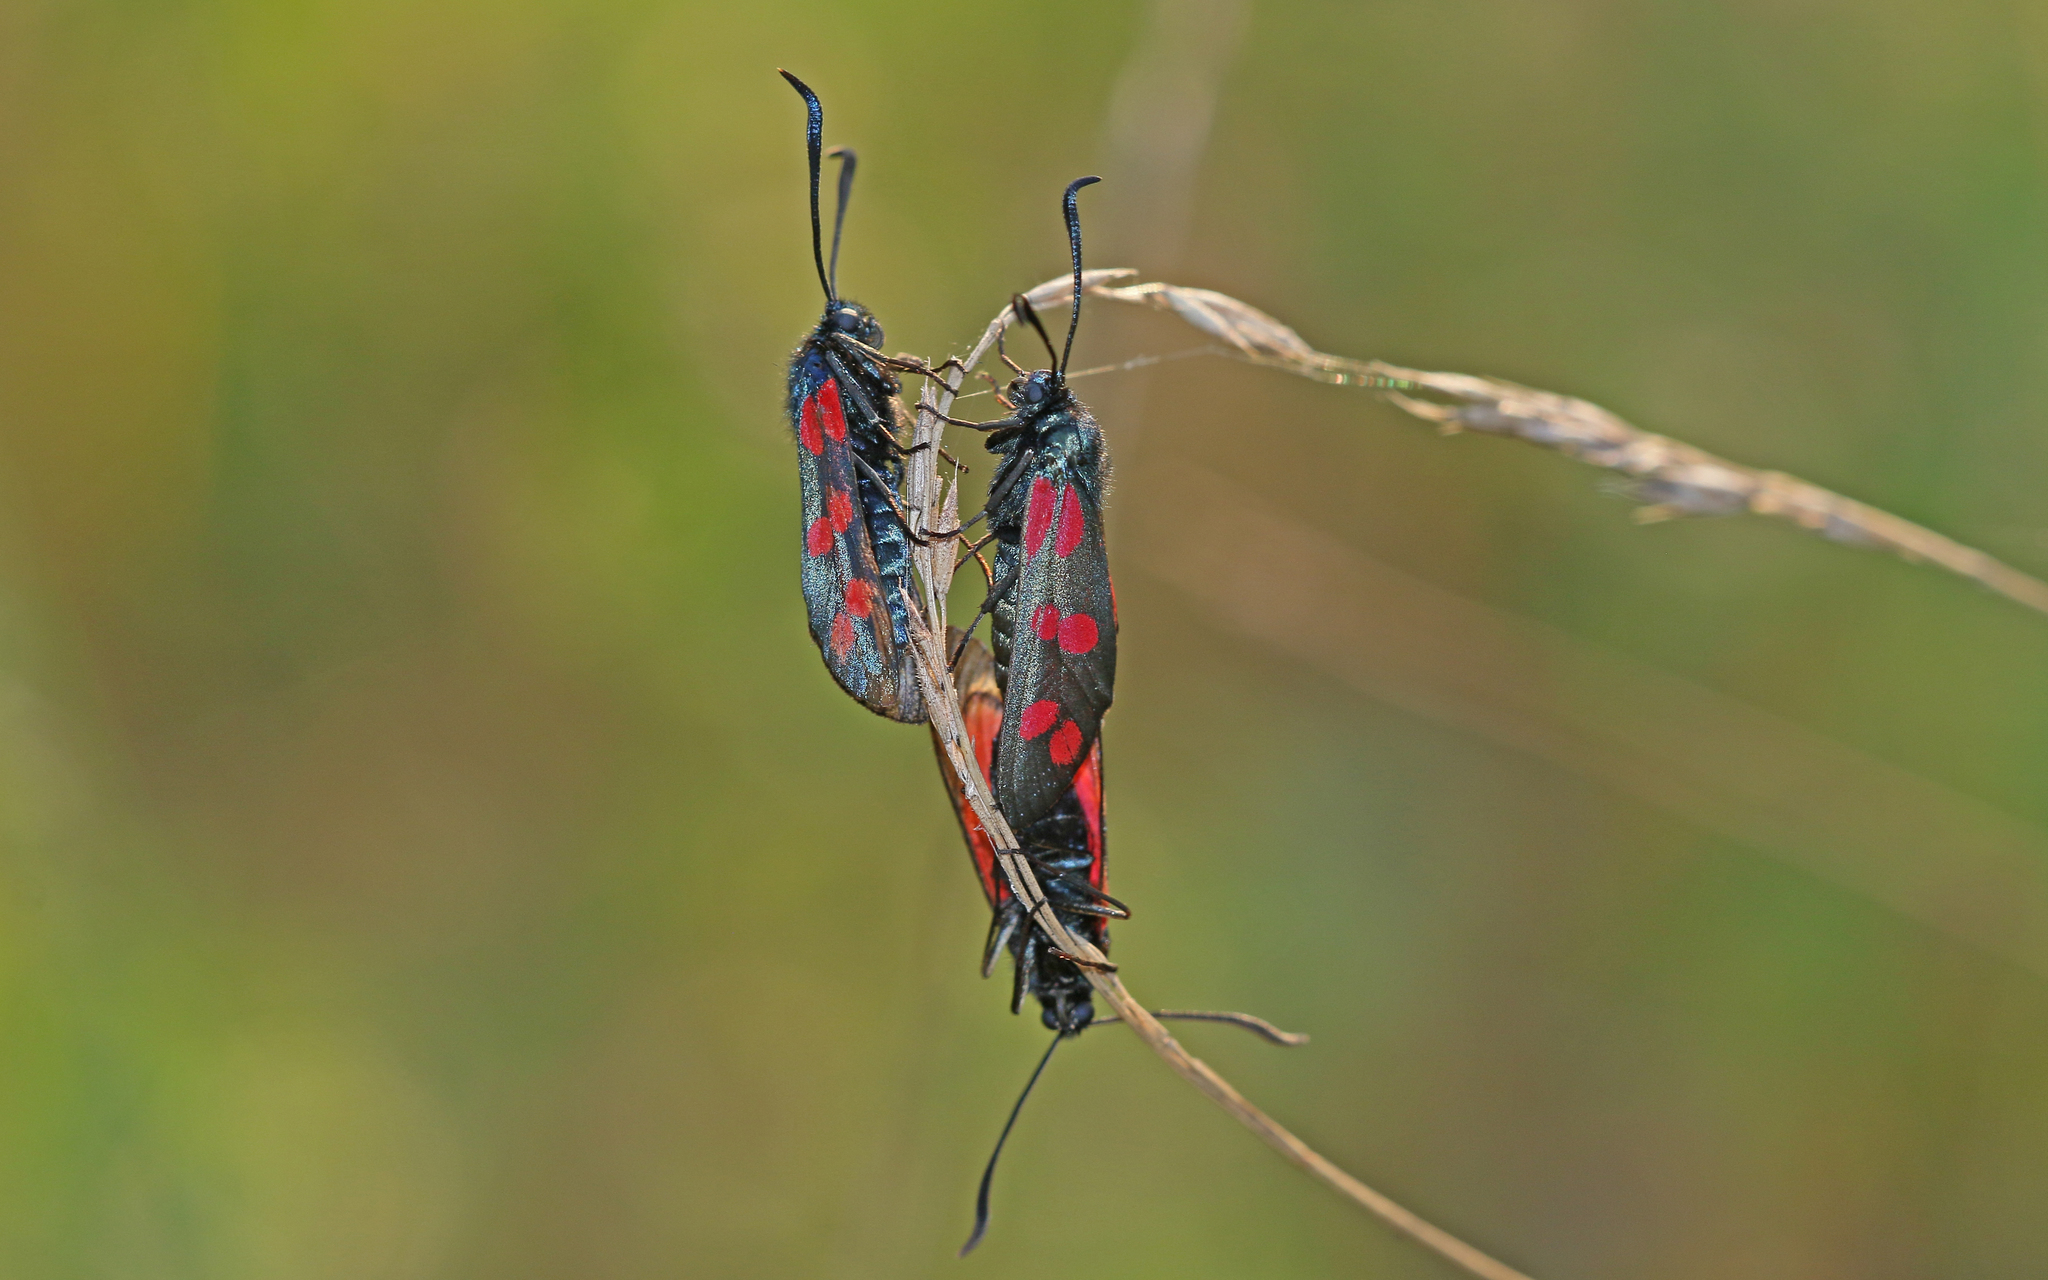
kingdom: Animalia
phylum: Arthropoda
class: Insecta
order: Lepidoptera
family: Zygaenidae
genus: Zygaena
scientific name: Zygaena filipendulae
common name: Six-spot burnet
